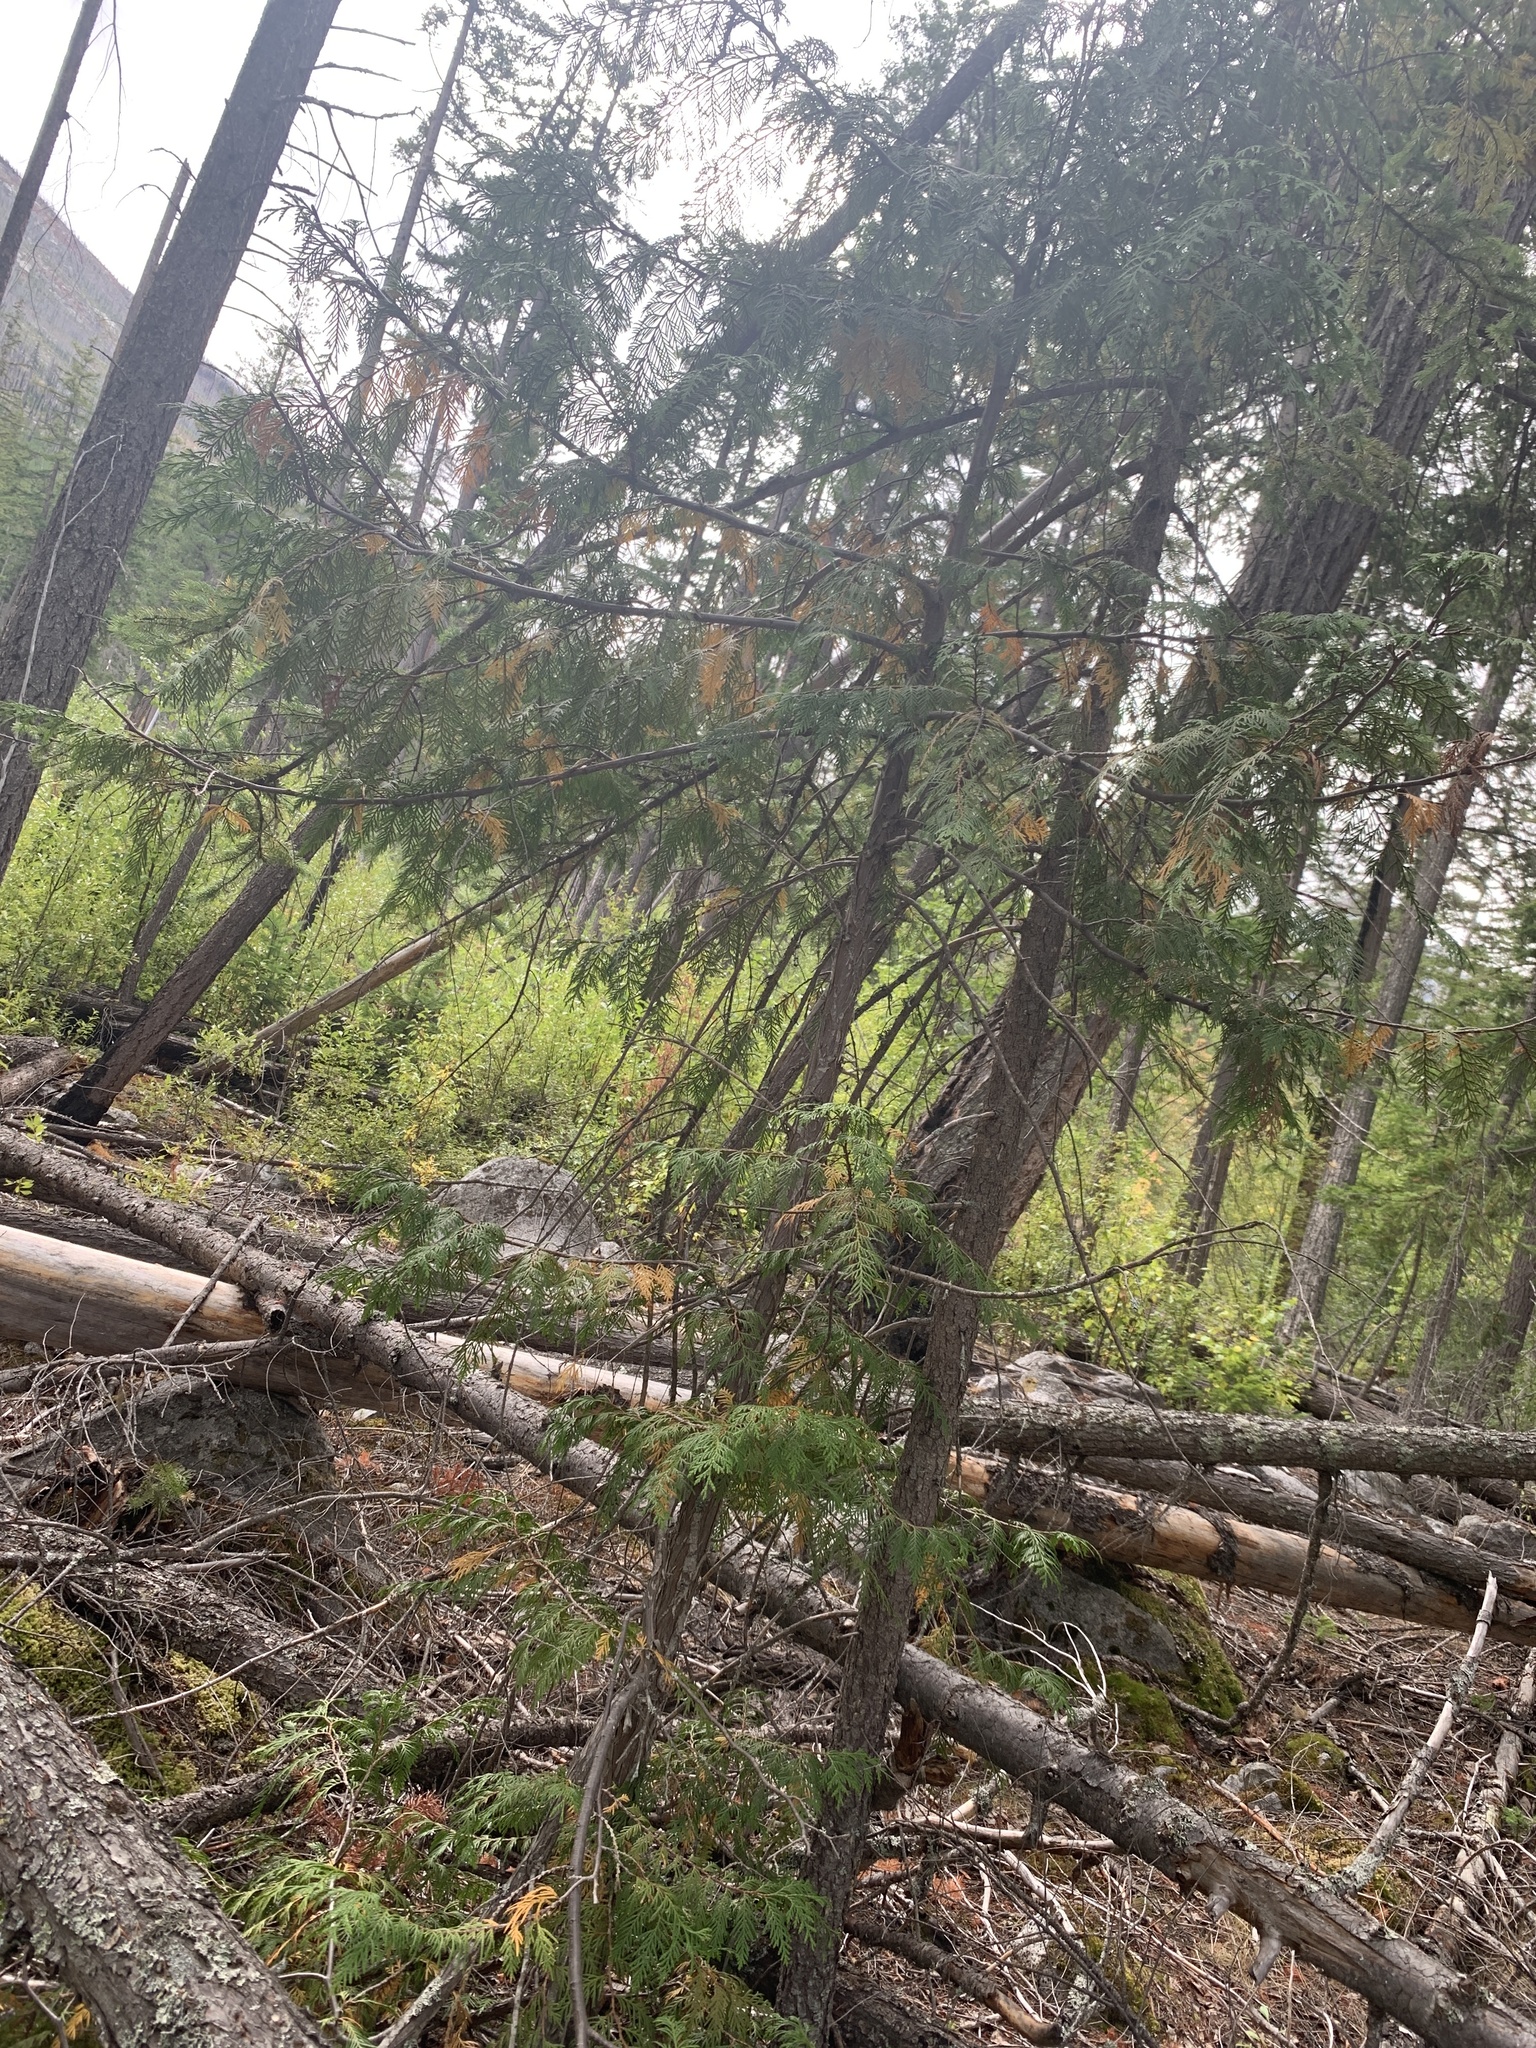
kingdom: Plantae
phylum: Tracheophyta
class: Pinopsida
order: Pinales
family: Cupressaceae
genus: Thuja
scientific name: Thuja plicata
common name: Western red-cedar
